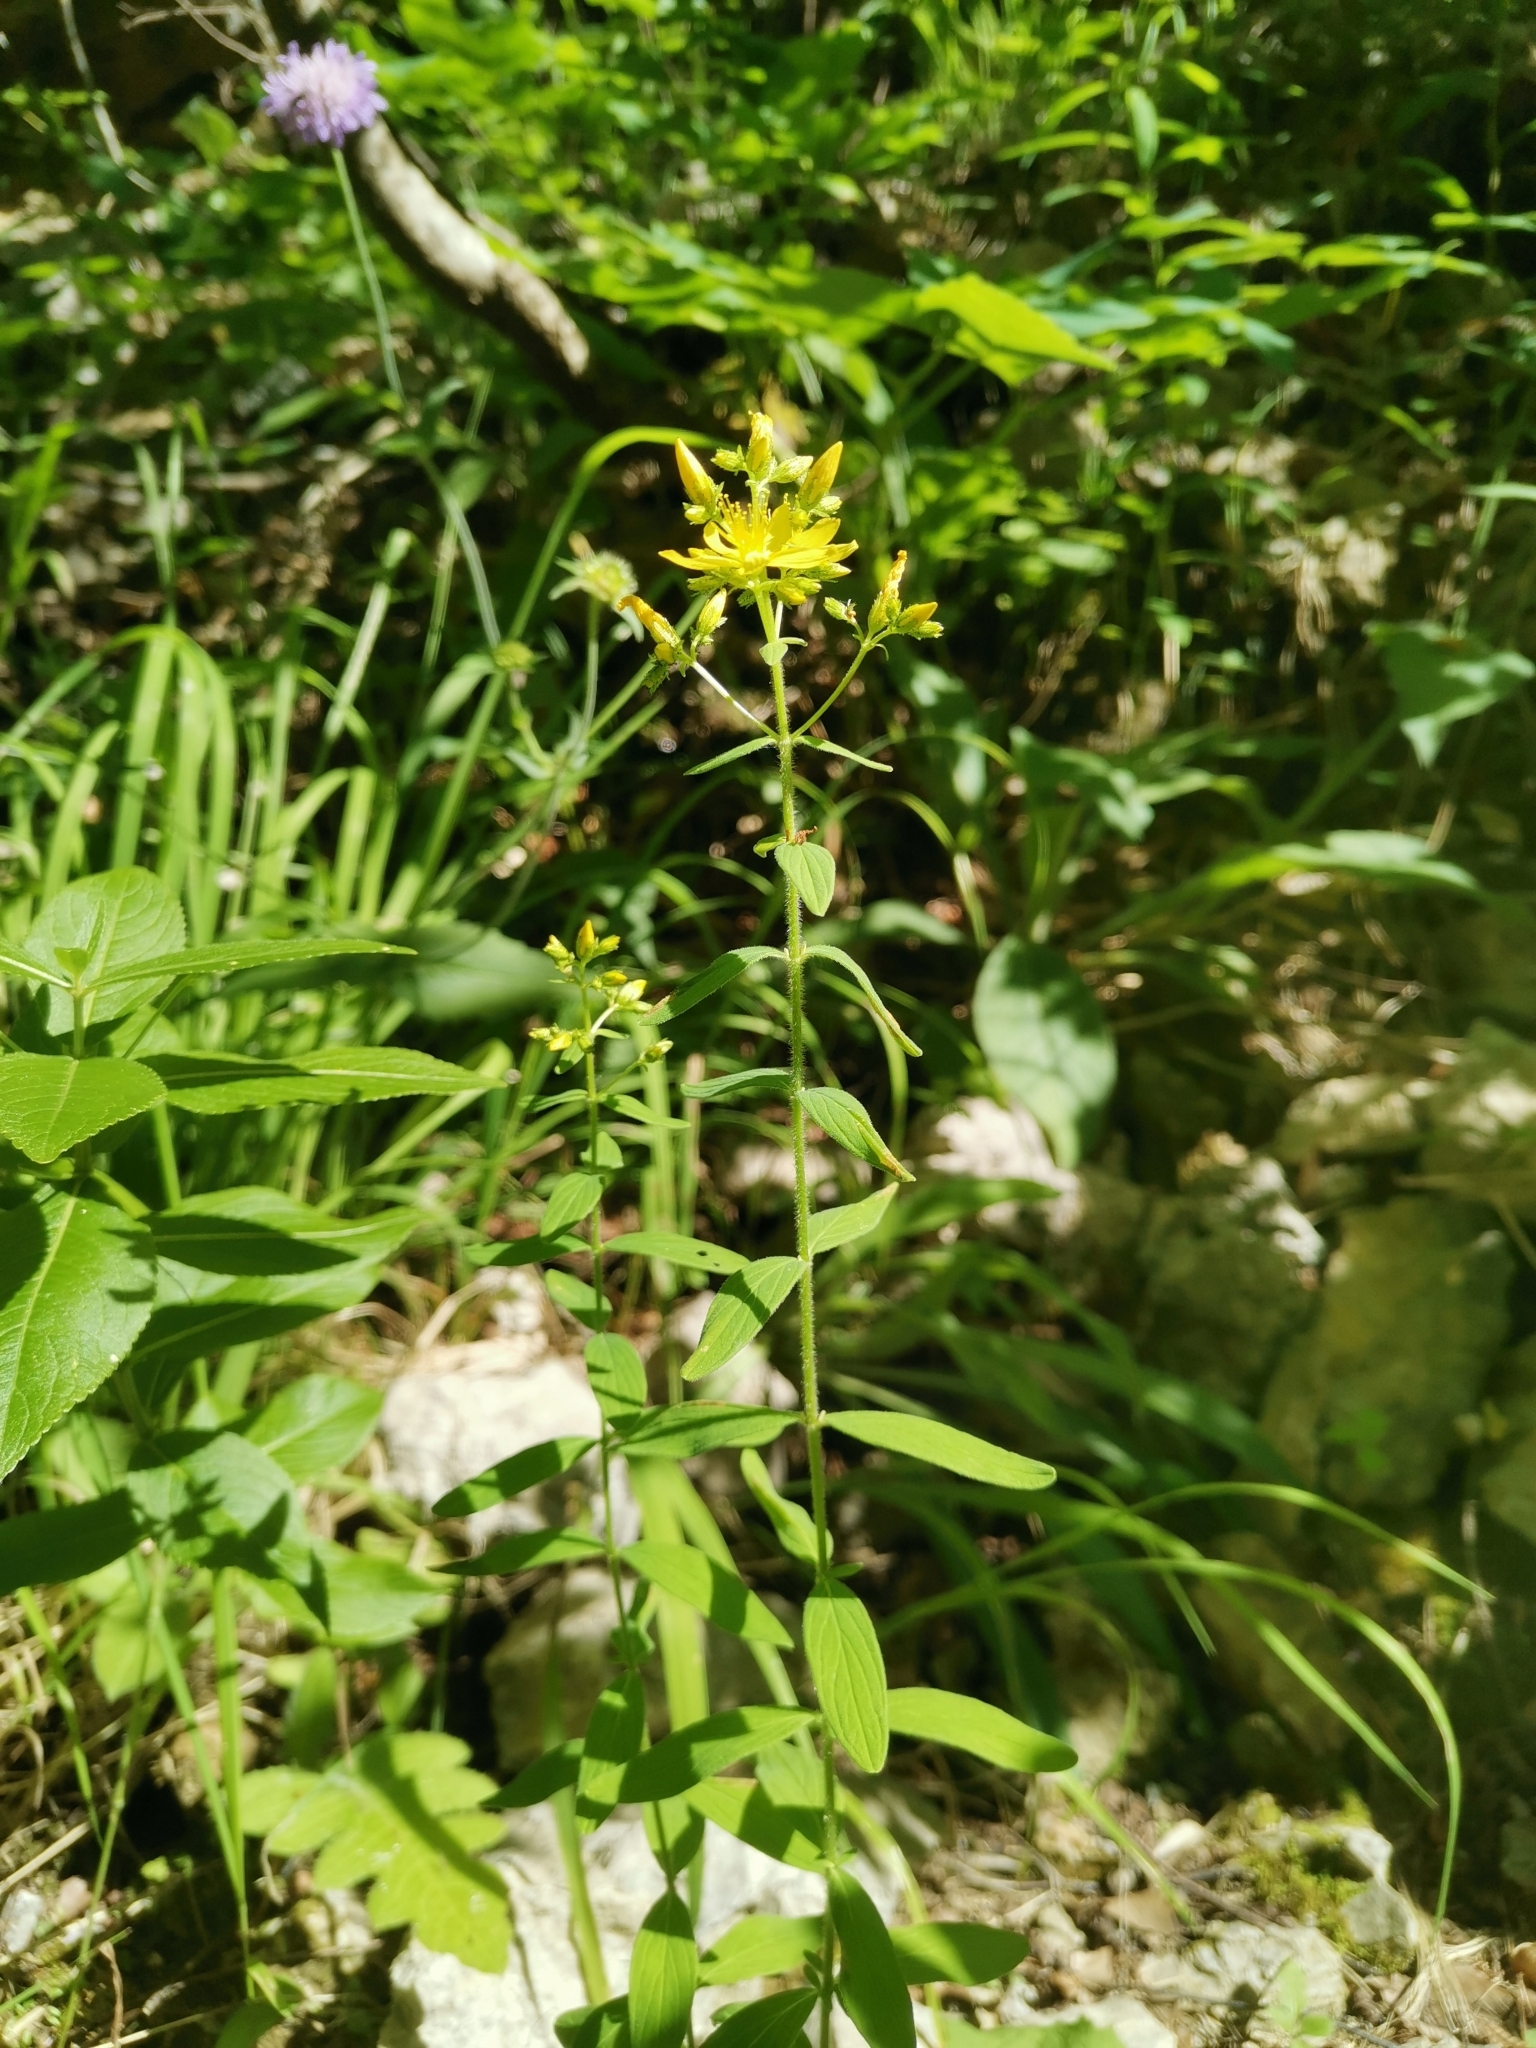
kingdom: Plantae
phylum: Tracheophyta
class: Magnoliopsida
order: Malpighiales
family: Hypericaceae
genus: Hypericum
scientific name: Hypericum hirsutum
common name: Hairy st. john's-wort
